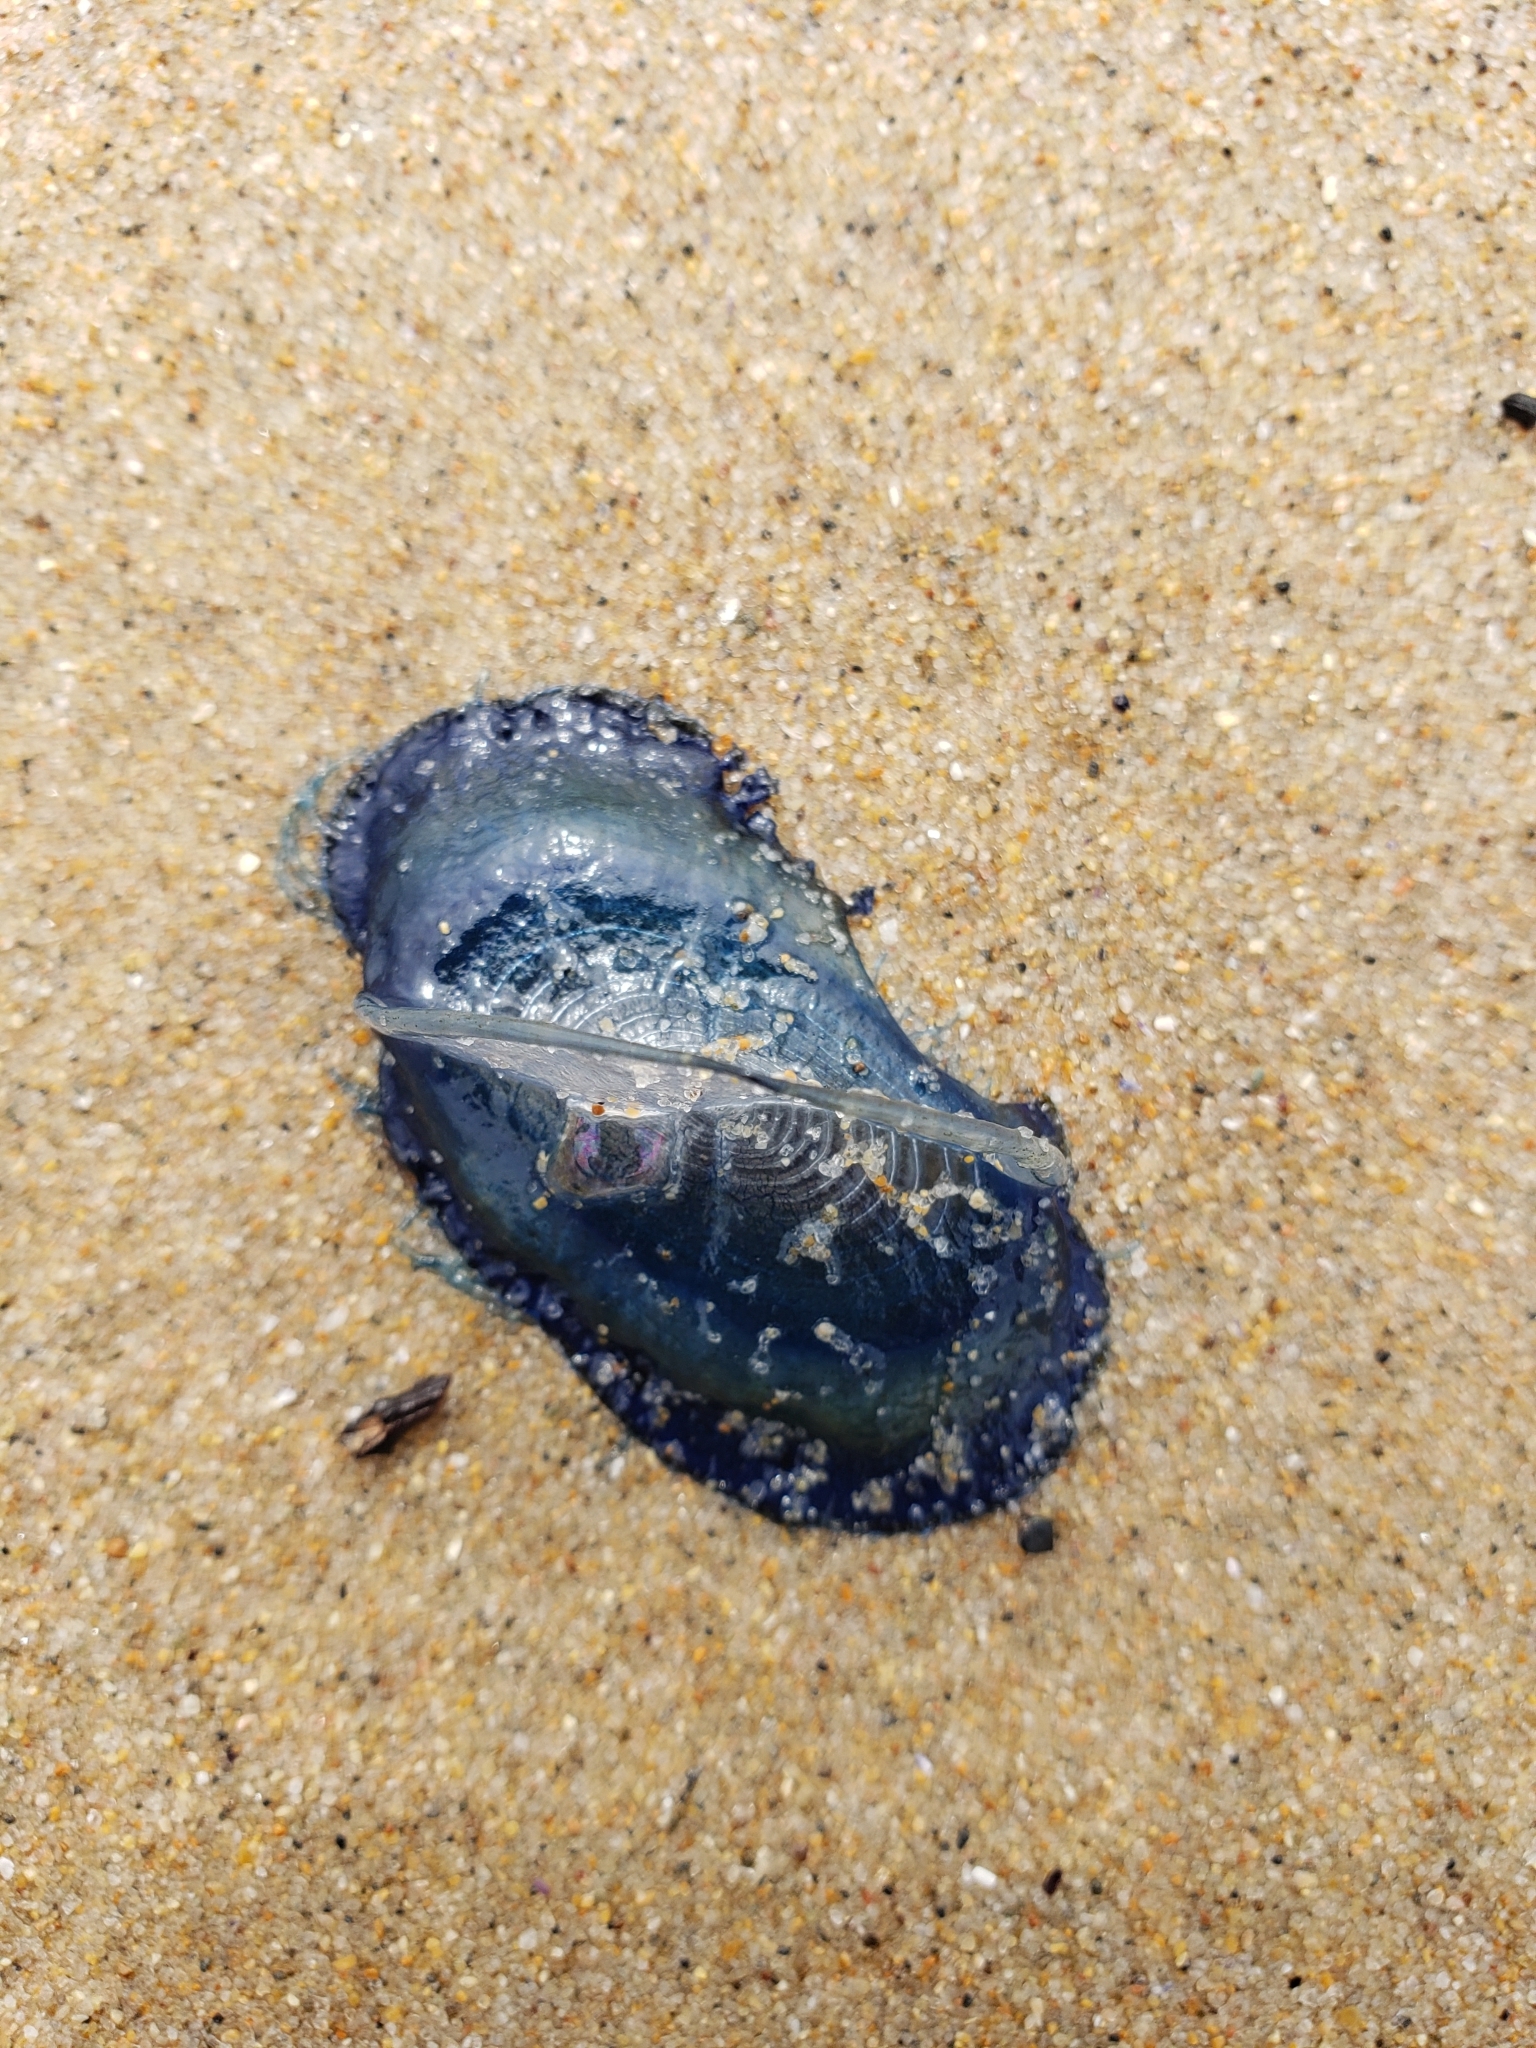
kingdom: Animalia
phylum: Cnidaria
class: Hydrozoa
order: Anthoathecata
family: Porpitidae
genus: Velella
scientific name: Velella velella
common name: By-the-wind-sailor
